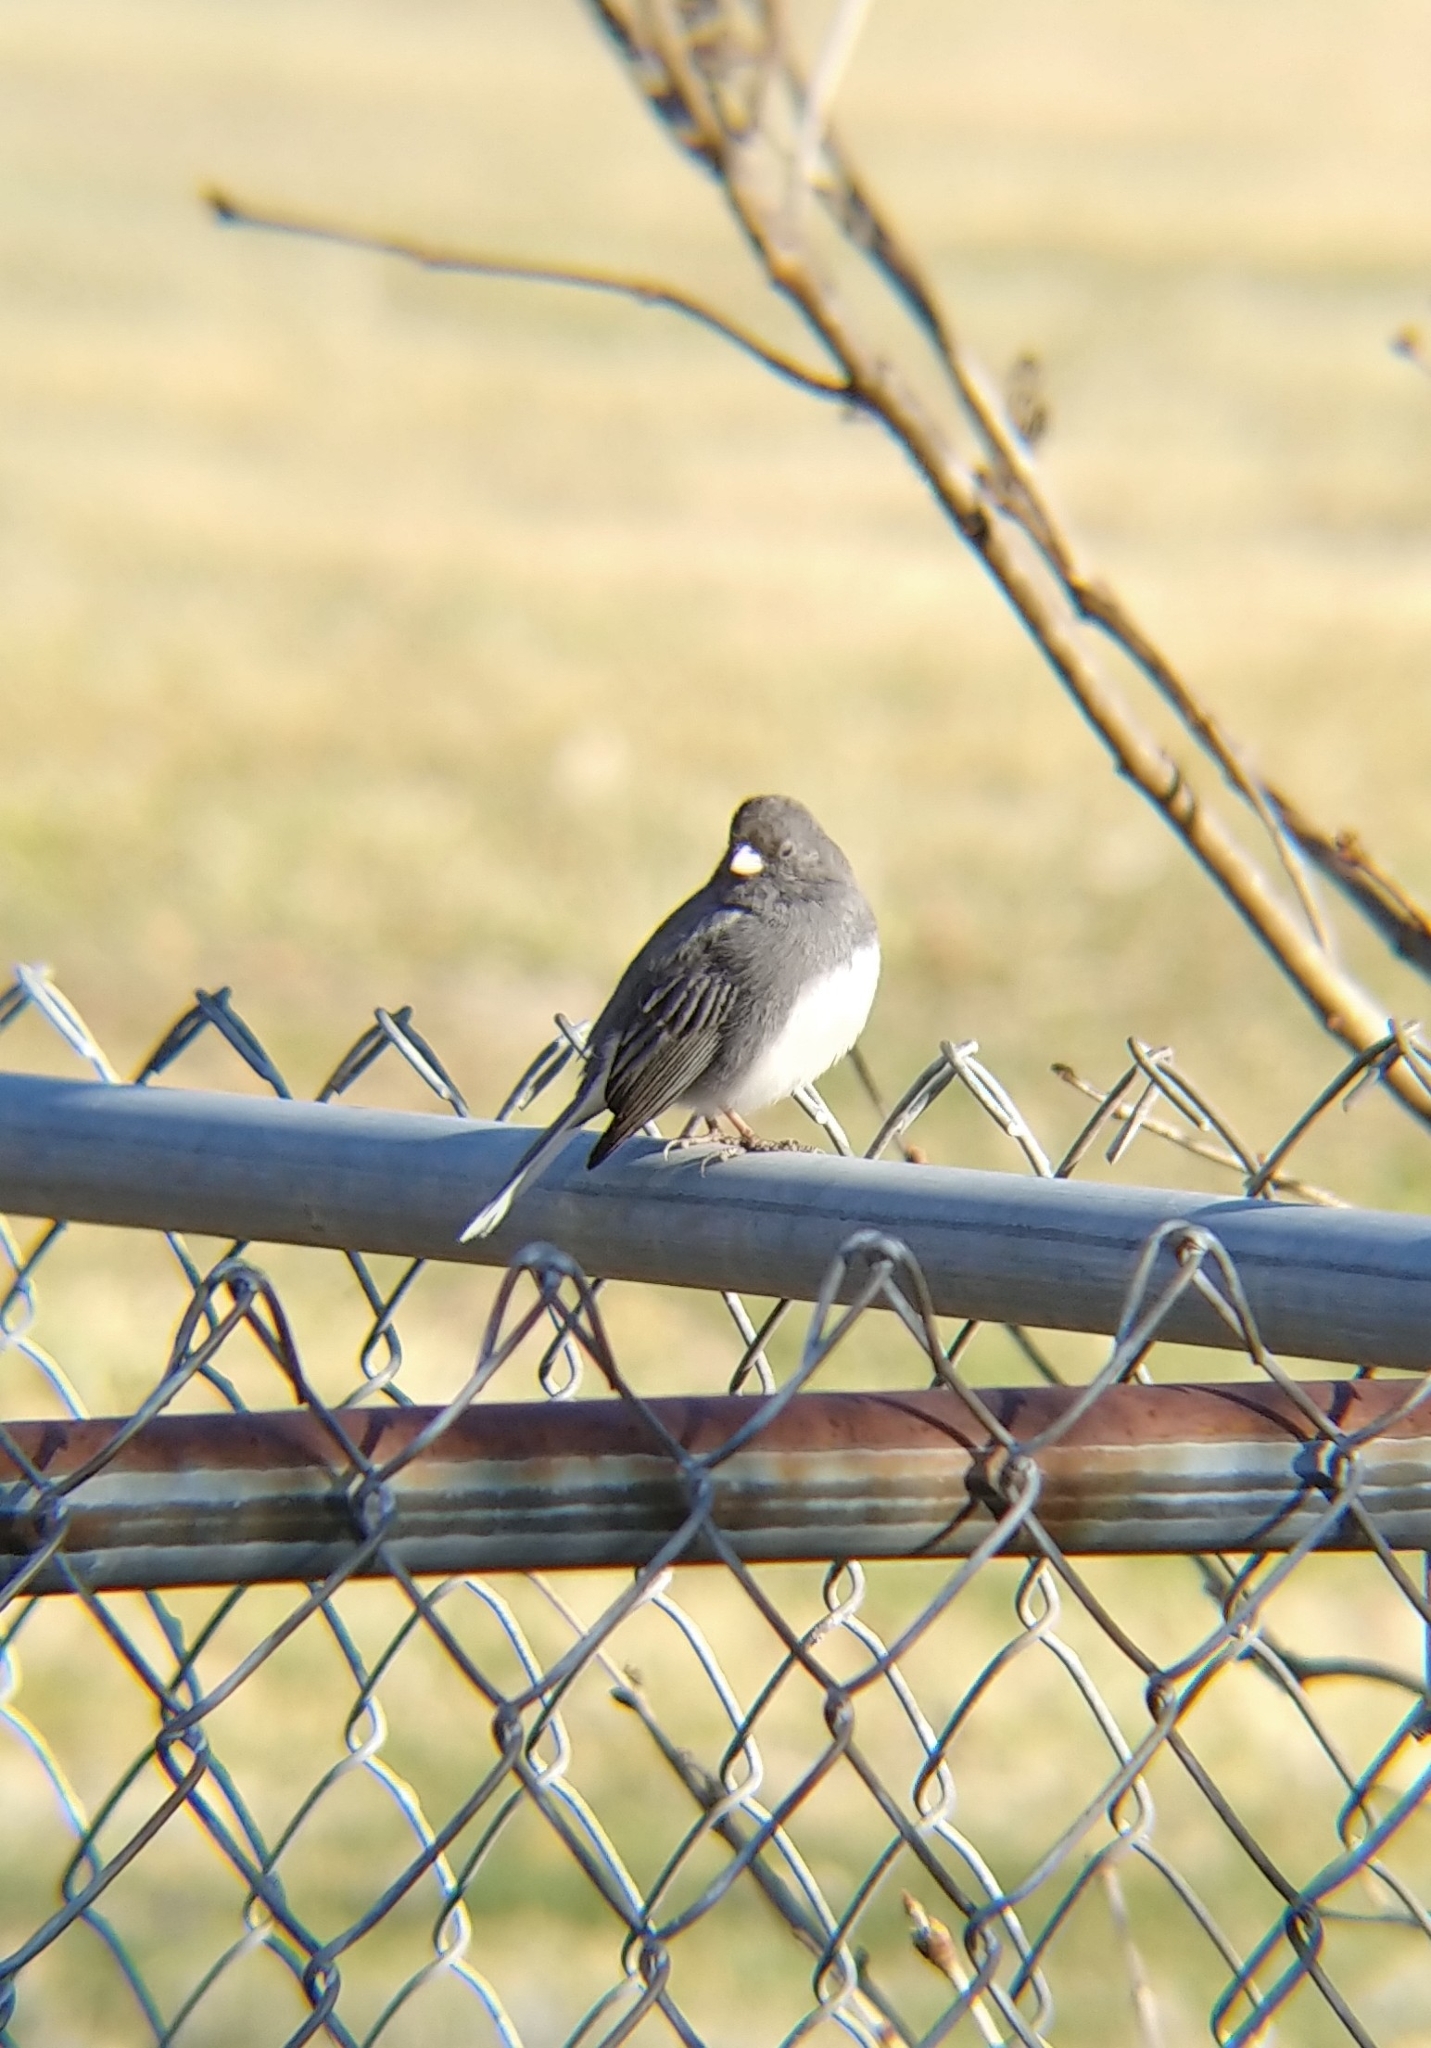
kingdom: Animalia
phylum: Chordata
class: Aves
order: Passeriformes
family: Passerellidae
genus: Junco
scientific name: Junco hyemalis
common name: Dark-eyed junco
